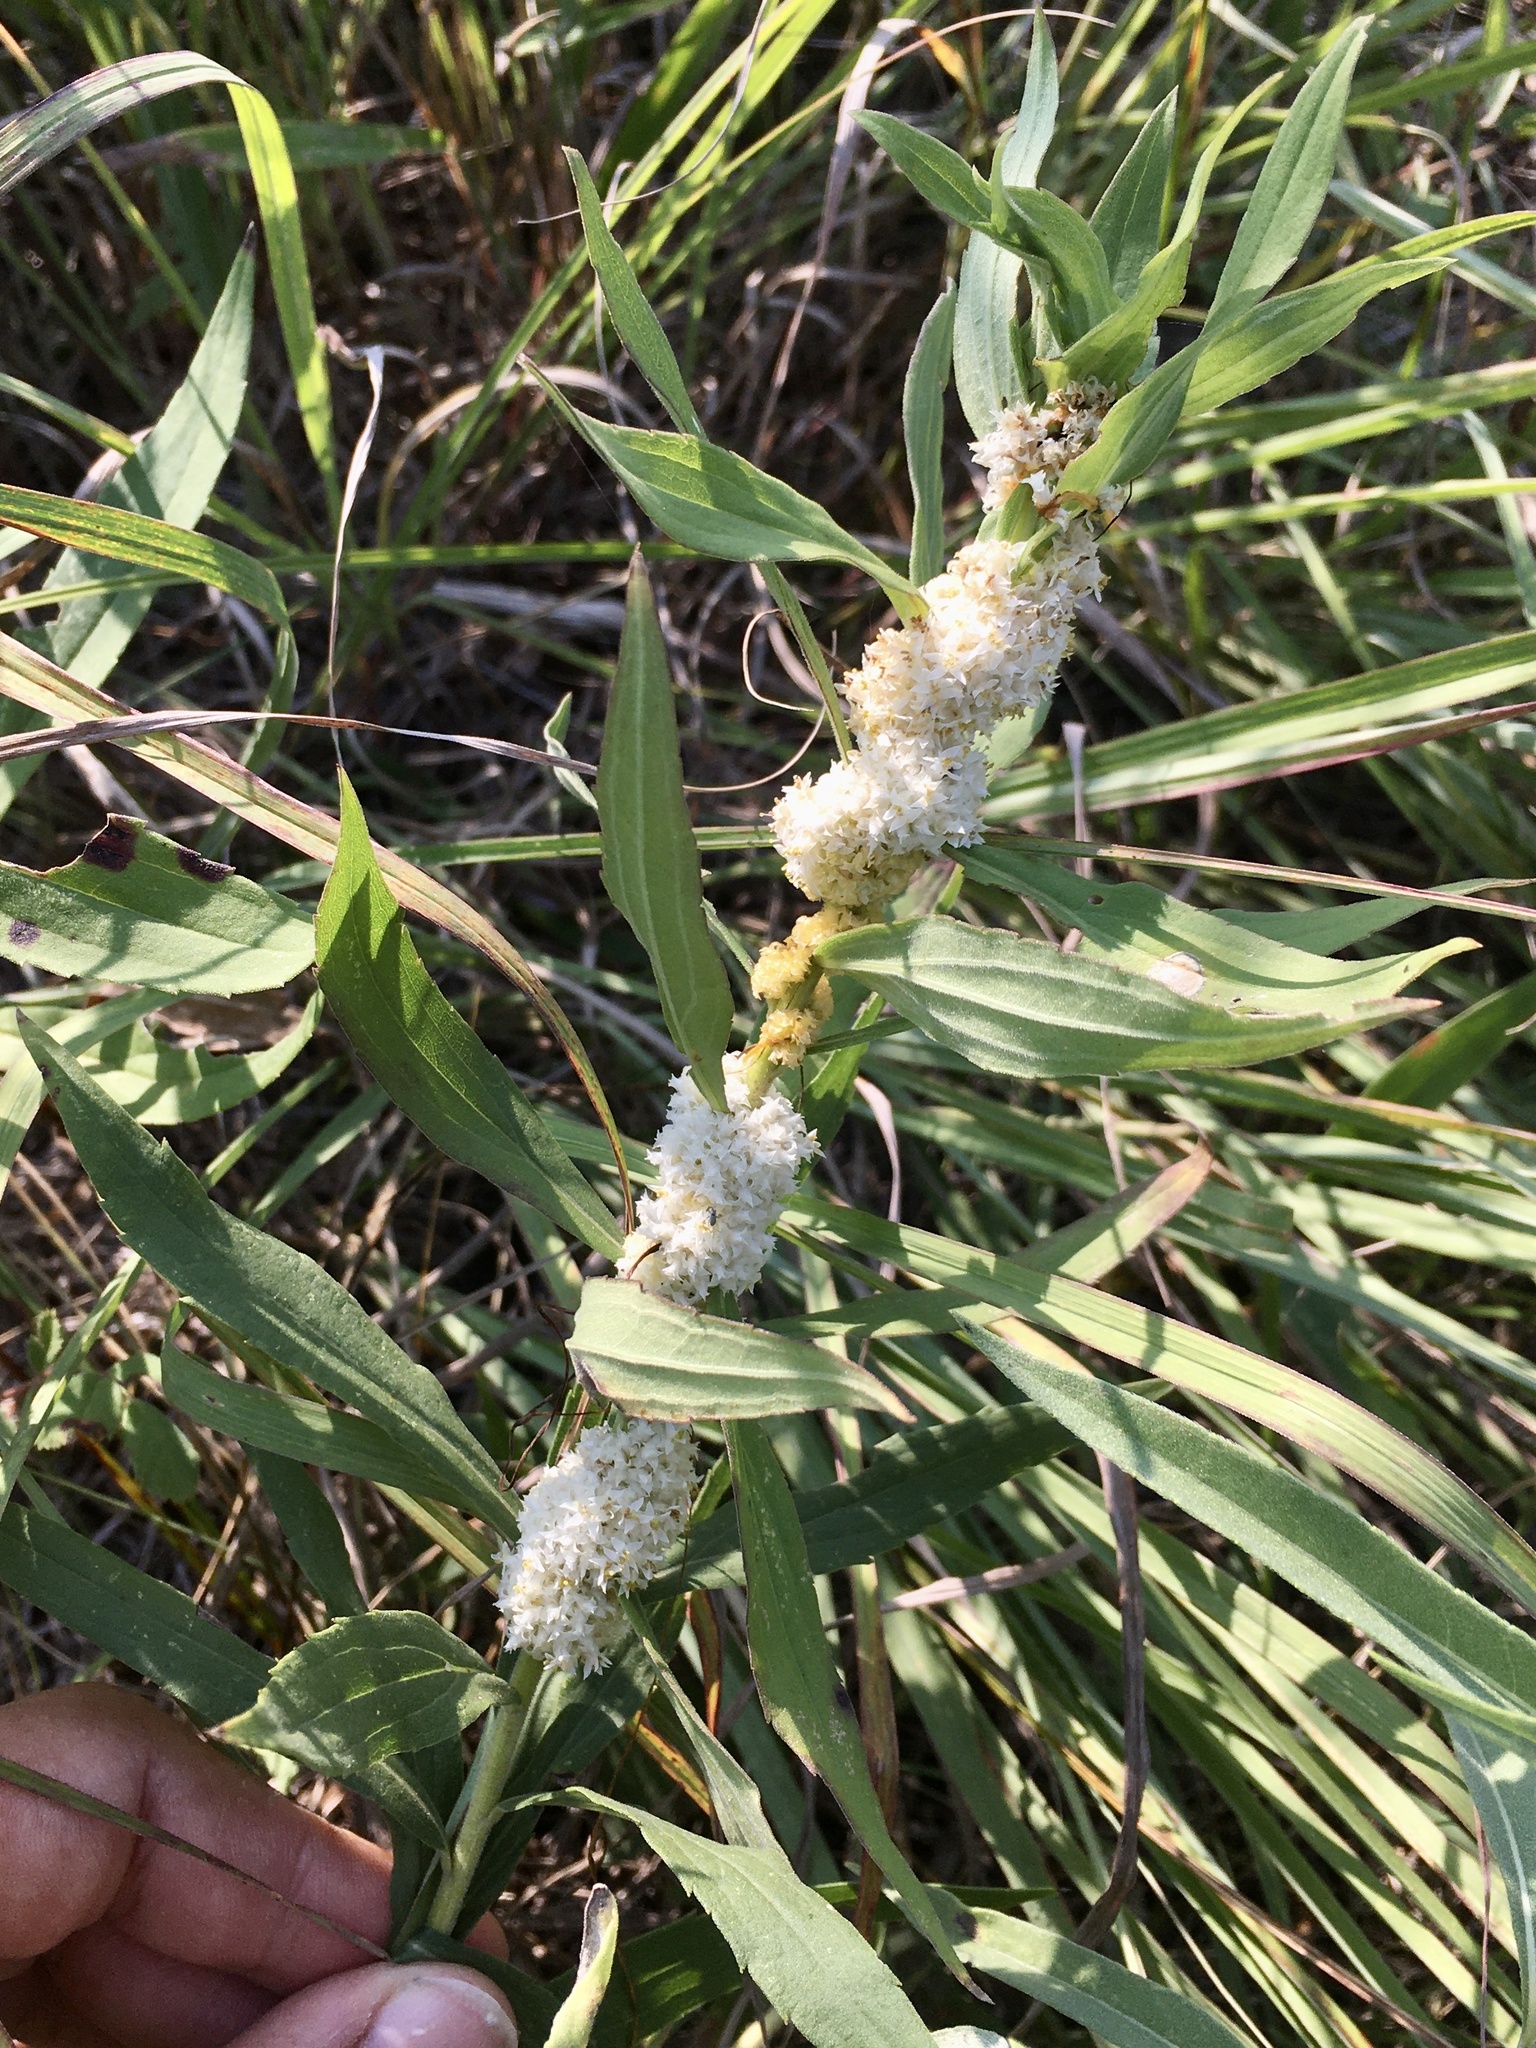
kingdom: Plantae
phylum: Tracheophyta
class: Magnoliopsida
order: Solanales
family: Convolvulaceae
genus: Cuscuta
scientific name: Cuscuta glomerata
